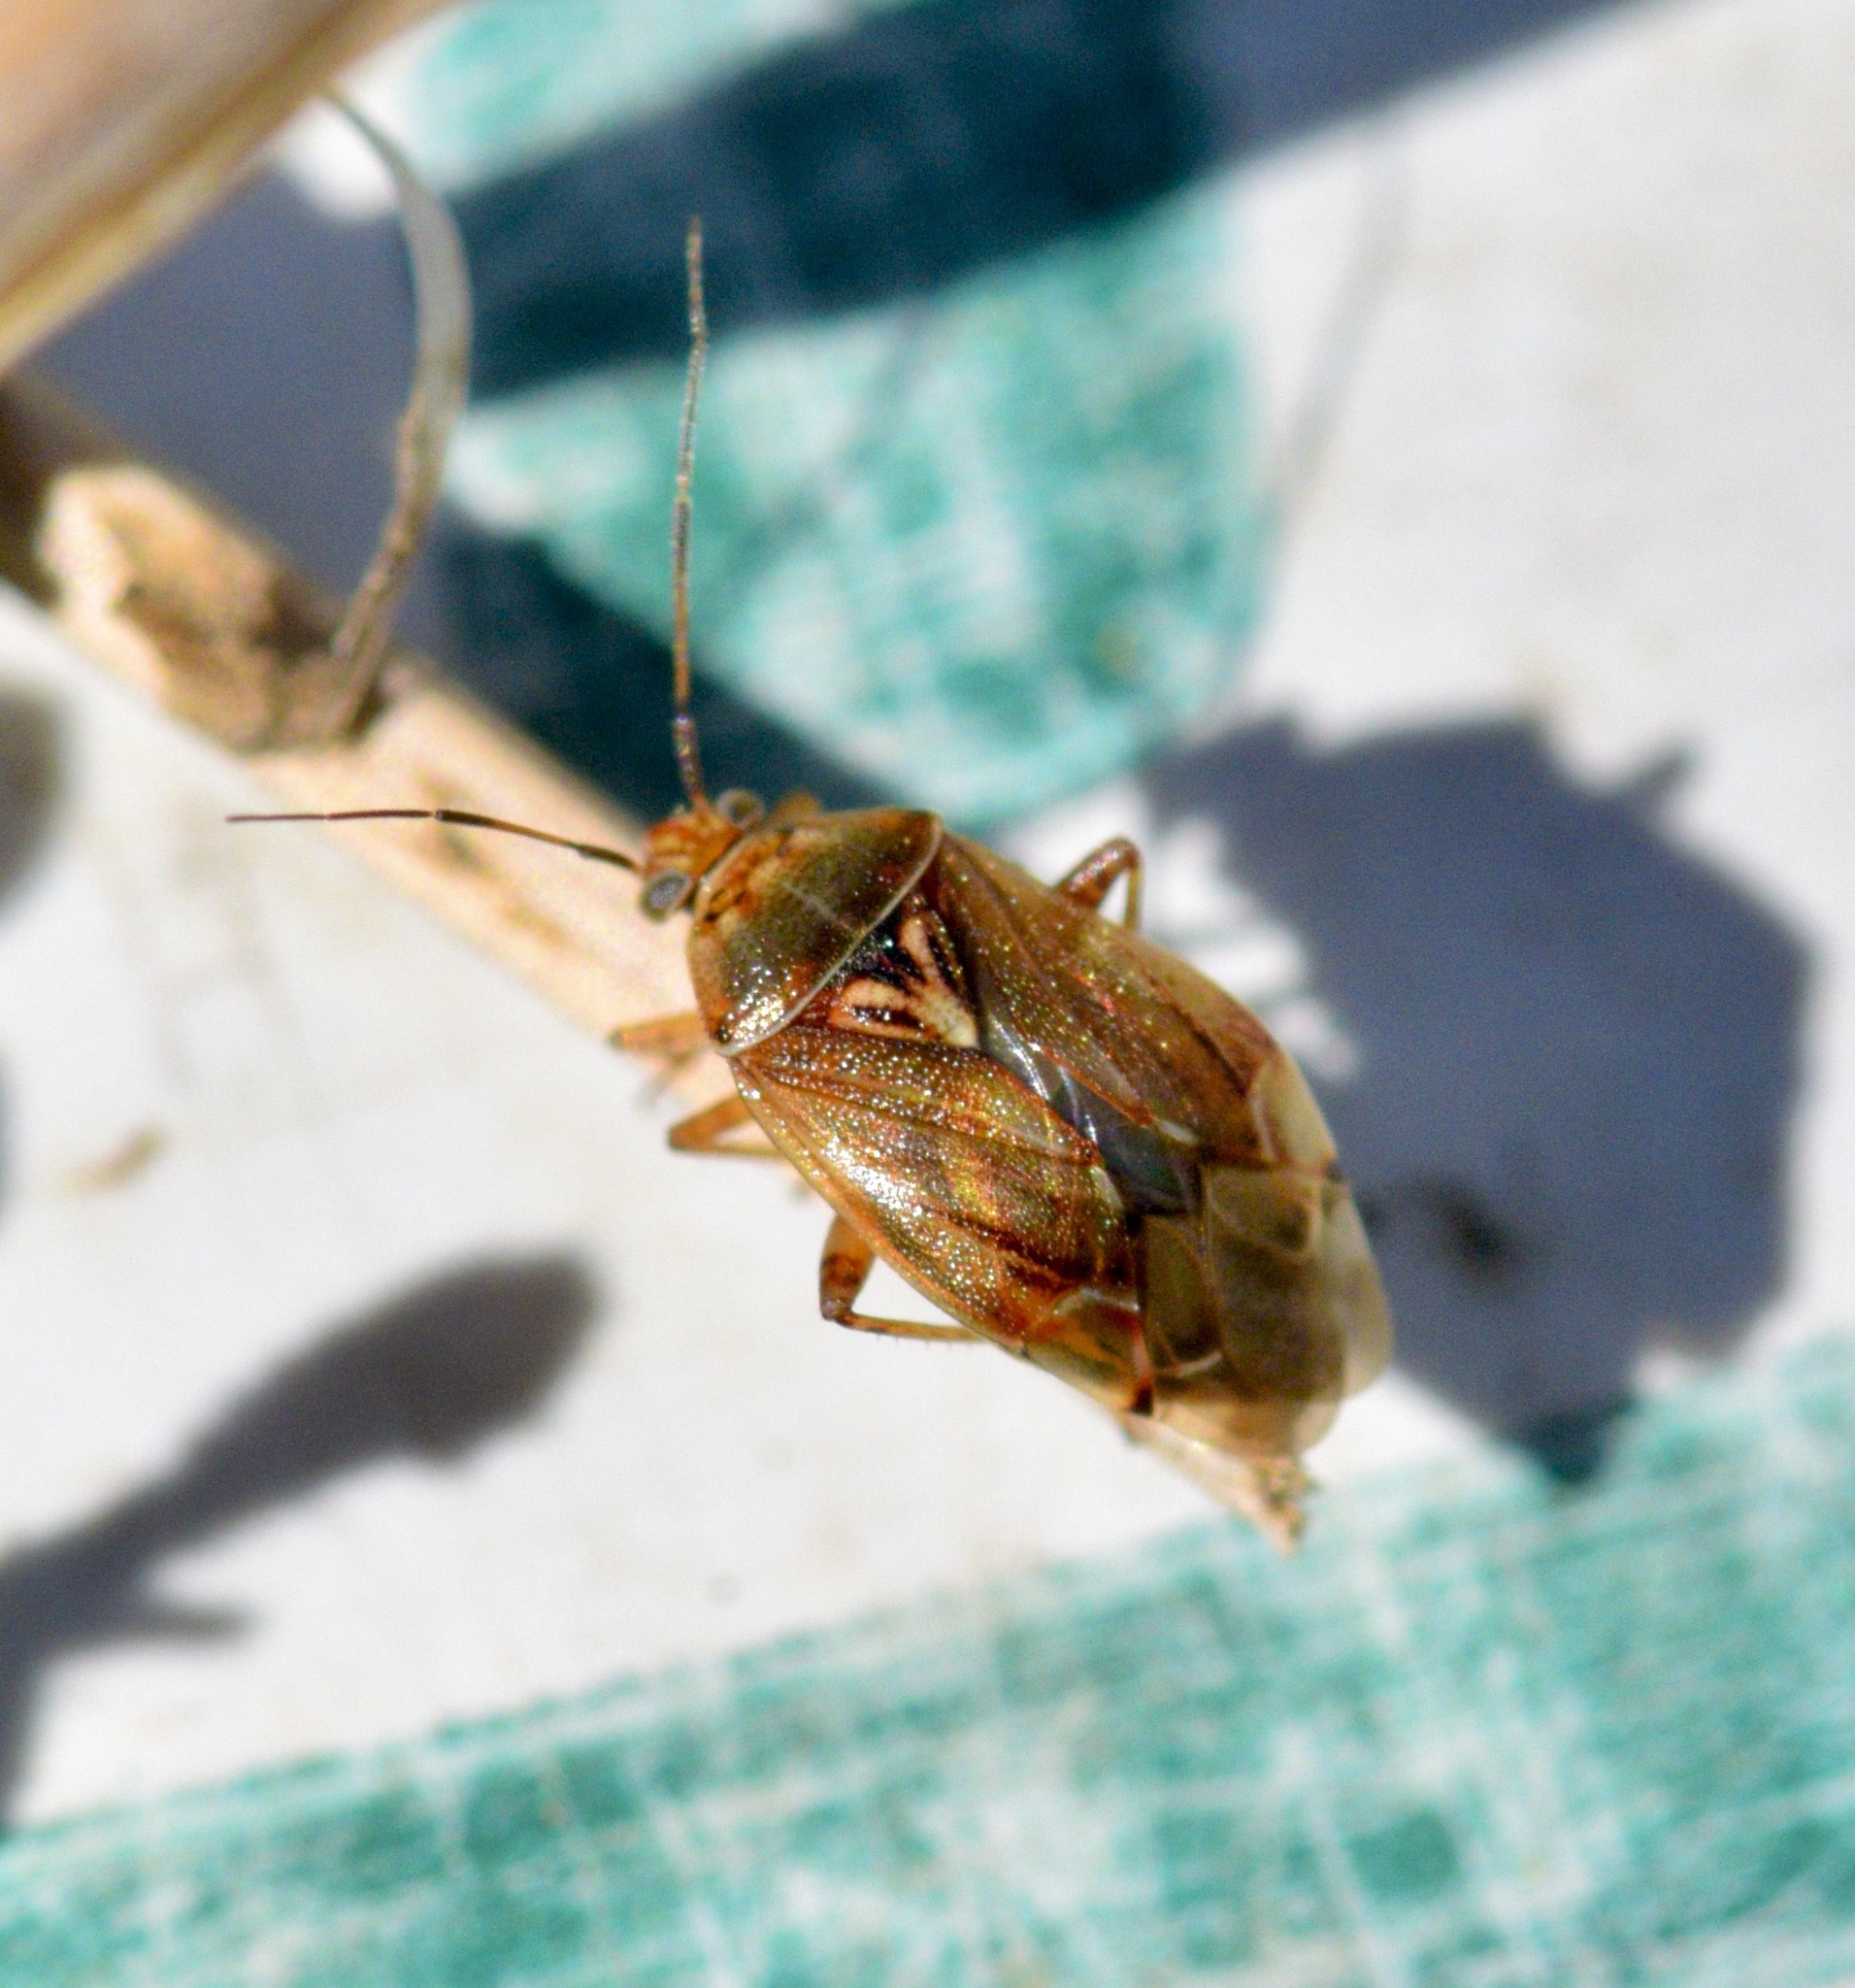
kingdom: Animalia
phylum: Arthropoda
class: Insecta
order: Hemiptera
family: Miridae
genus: Lygus
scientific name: Lygus lineolaris
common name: North american tarnished plant bug
